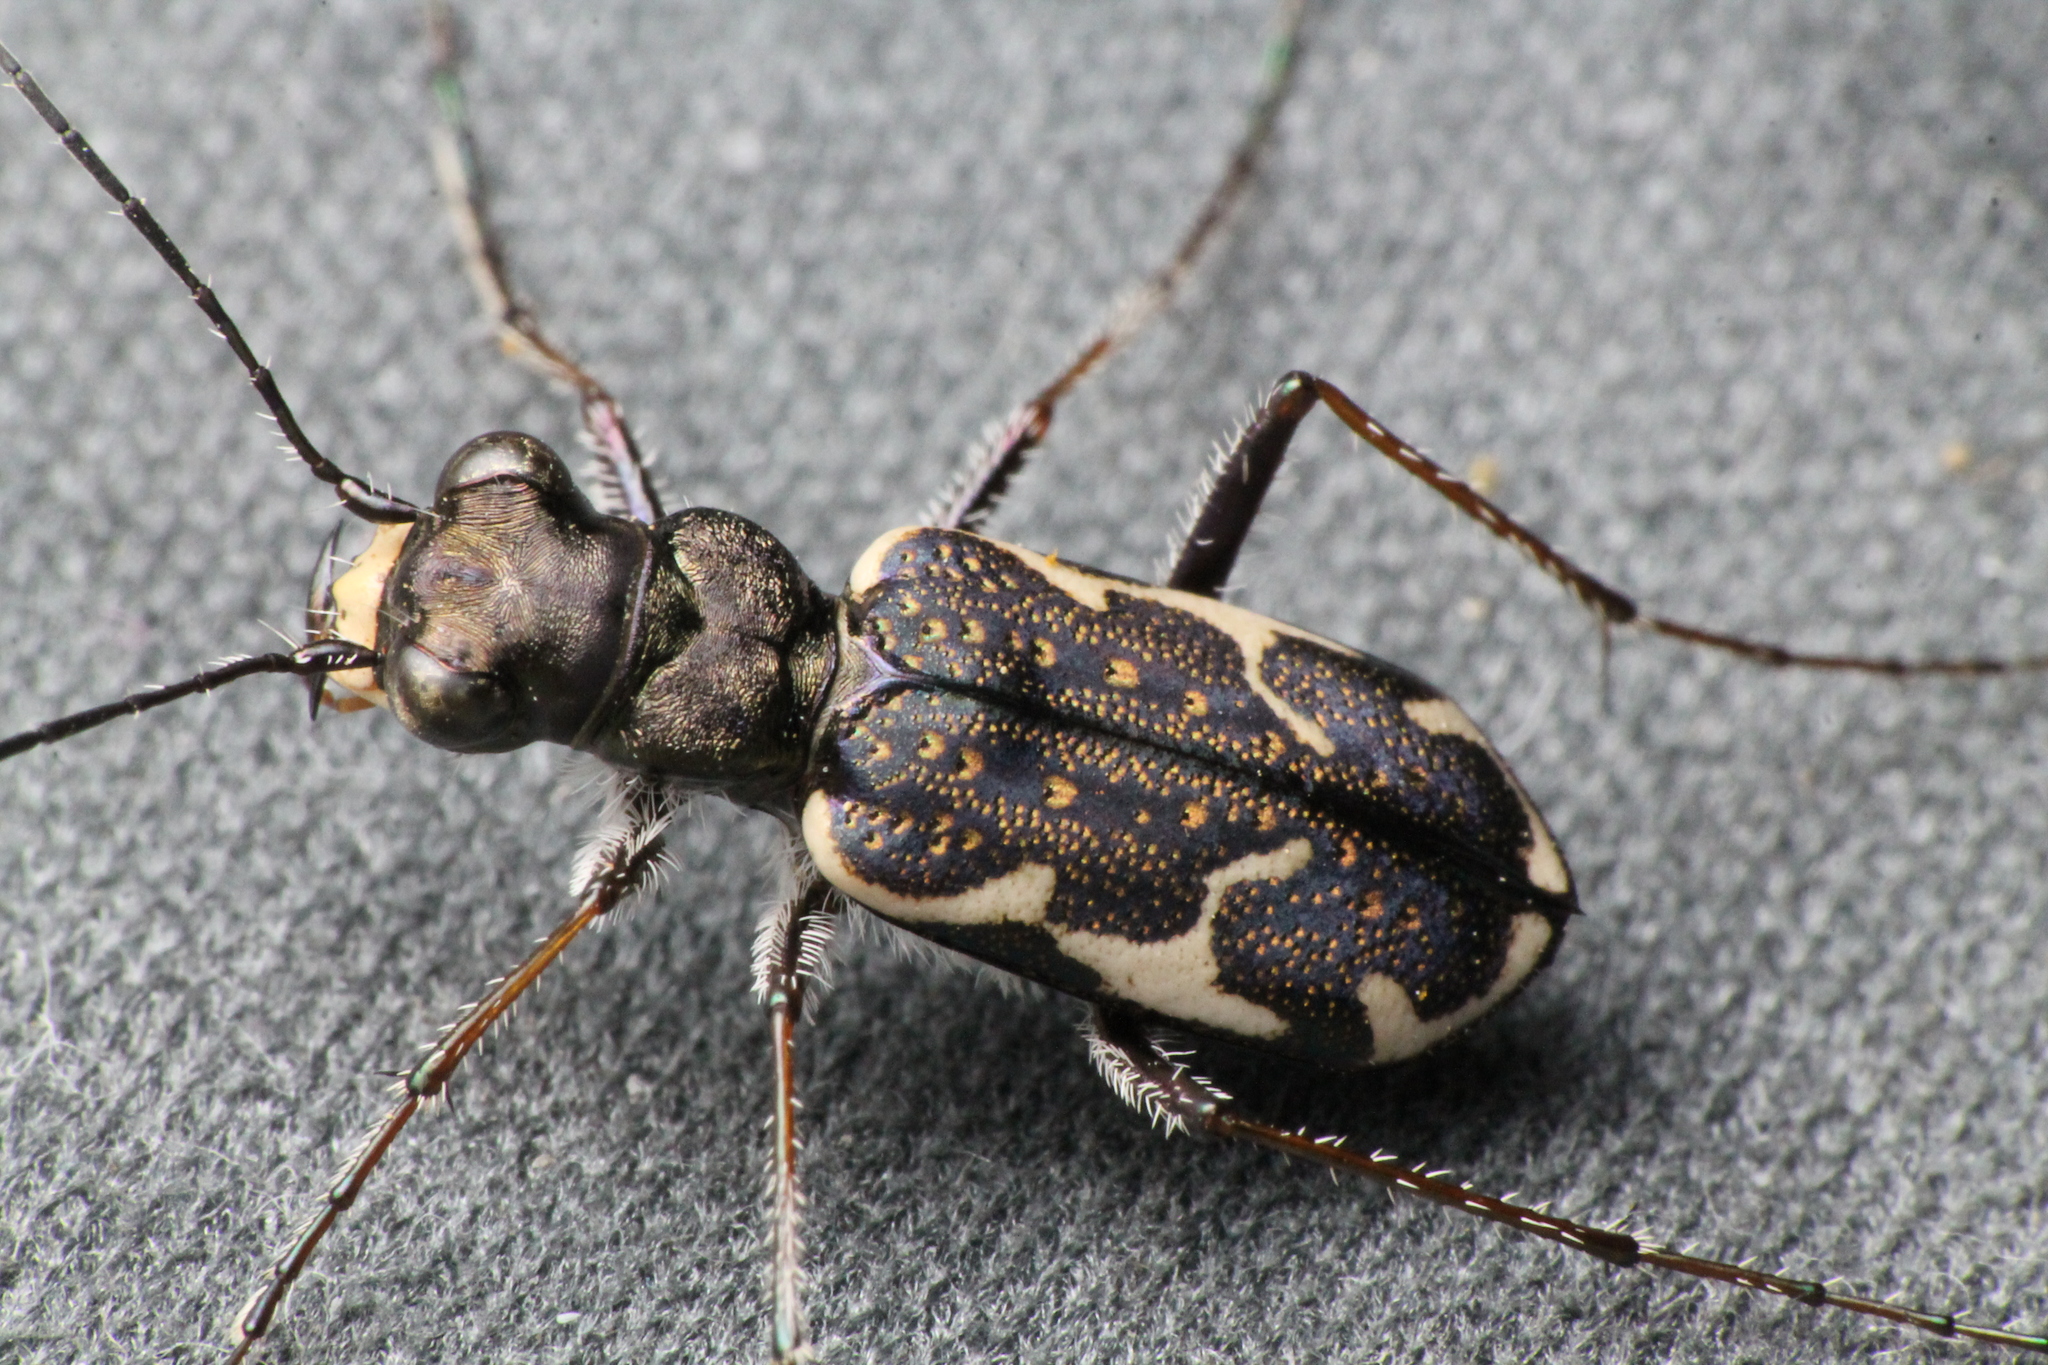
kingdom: Animalia
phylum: Arthropoda
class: Insecta
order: Coleoptera
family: Carabidae
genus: Neocicindela
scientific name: Neocicindela tuberculata
